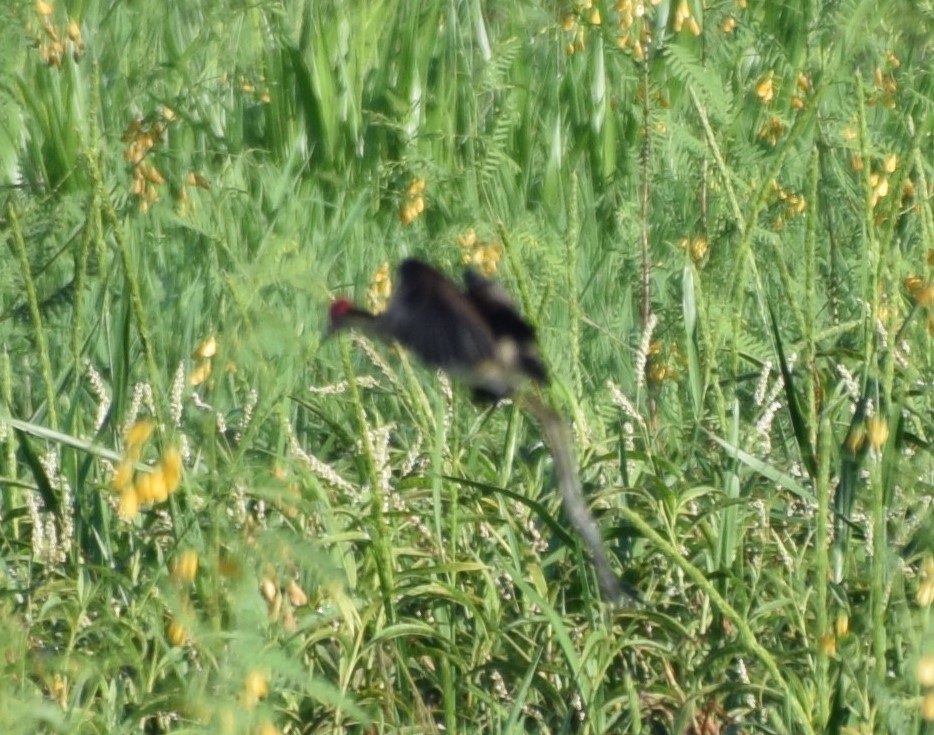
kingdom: Animalia
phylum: Chordata
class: Aves
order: Charadriiformes
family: Jacanidae
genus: Irediparra
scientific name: Irediparra gallinacea
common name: Comb-crested jacana
